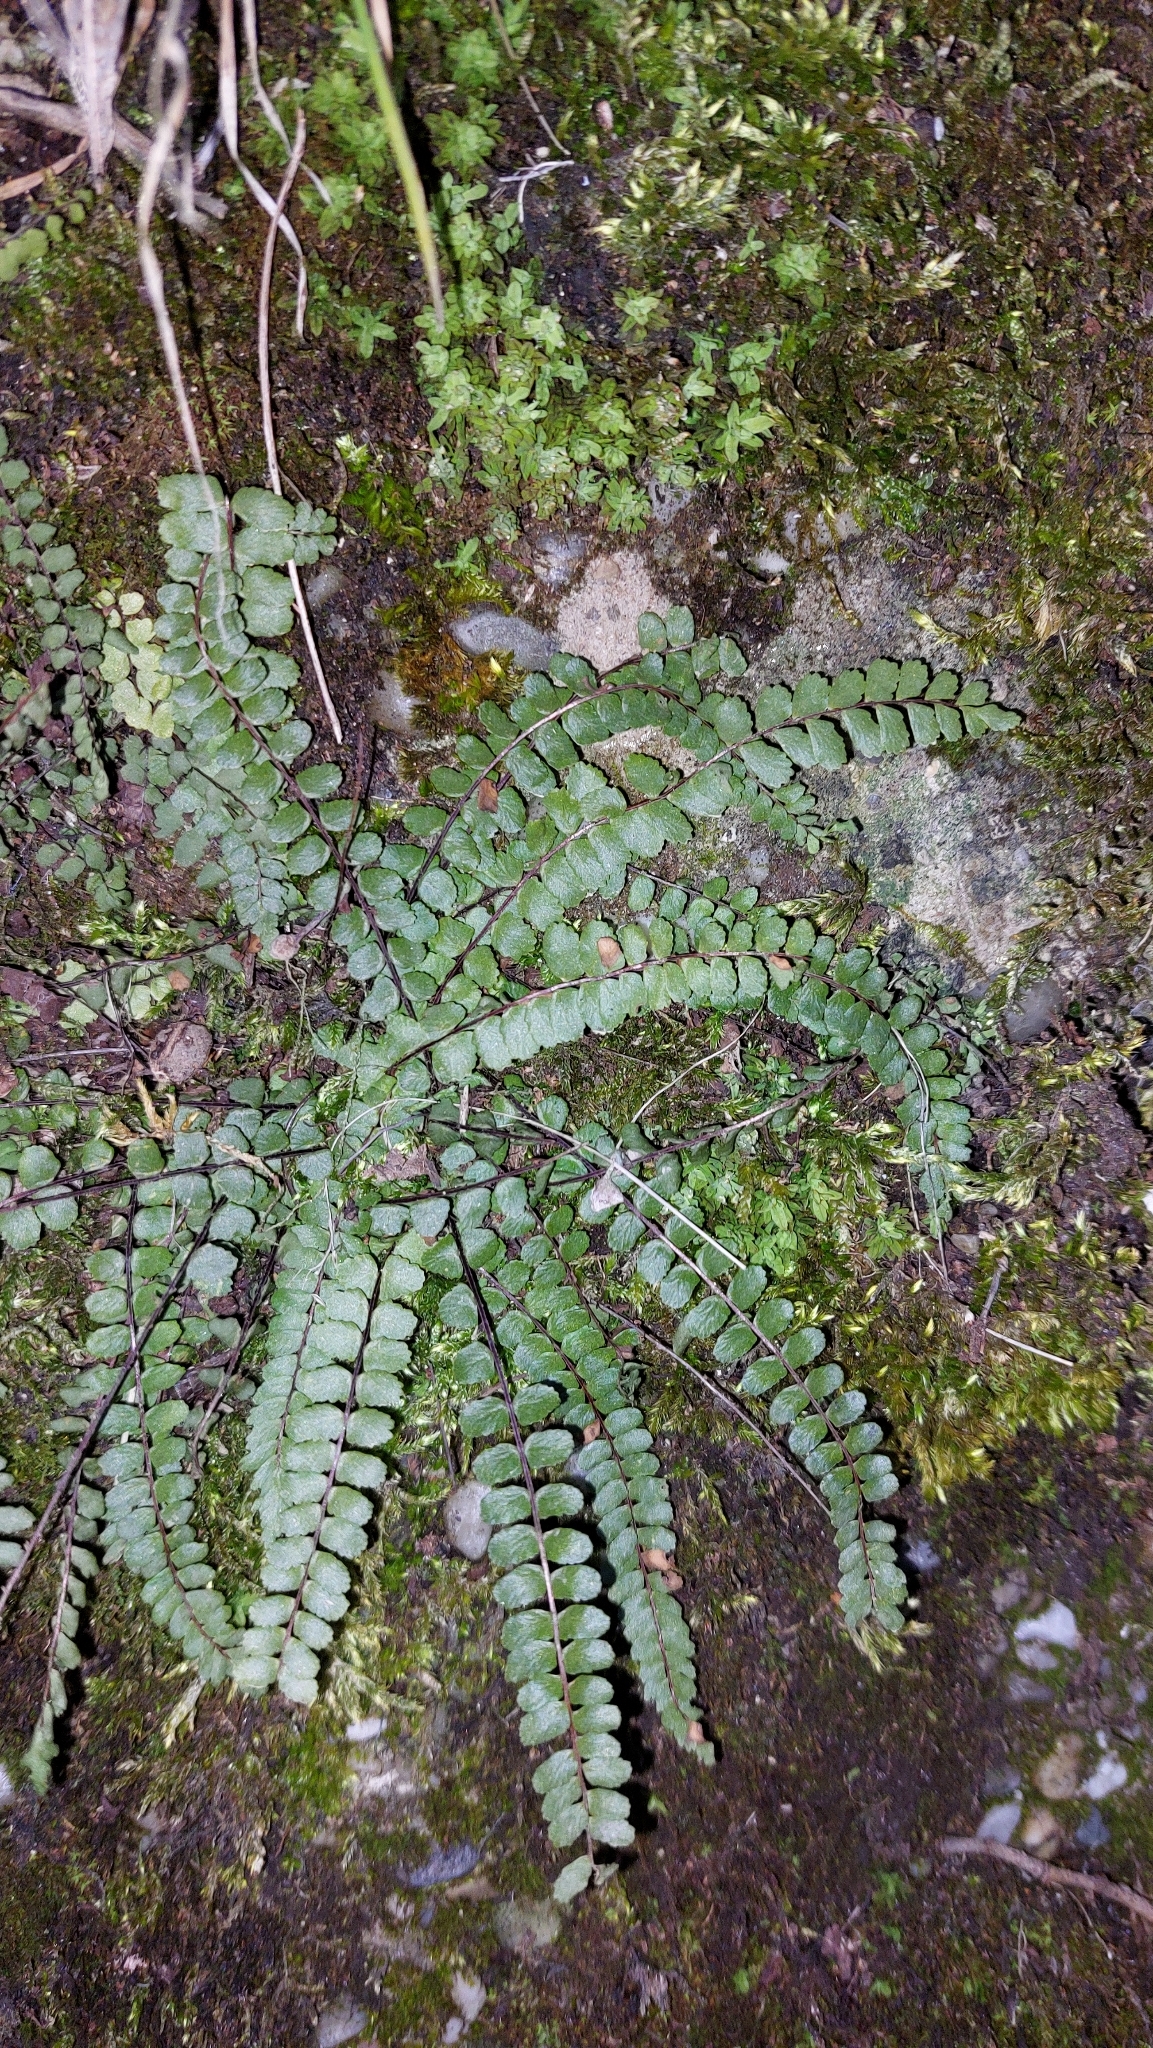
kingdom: Plantae
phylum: Tracheophyta
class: Polypodiopsida
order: Polypodiales
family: Aspleniaceae
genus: Asplenium
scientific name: Asplenium trichomanes
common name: Maidenhair spleenwort
